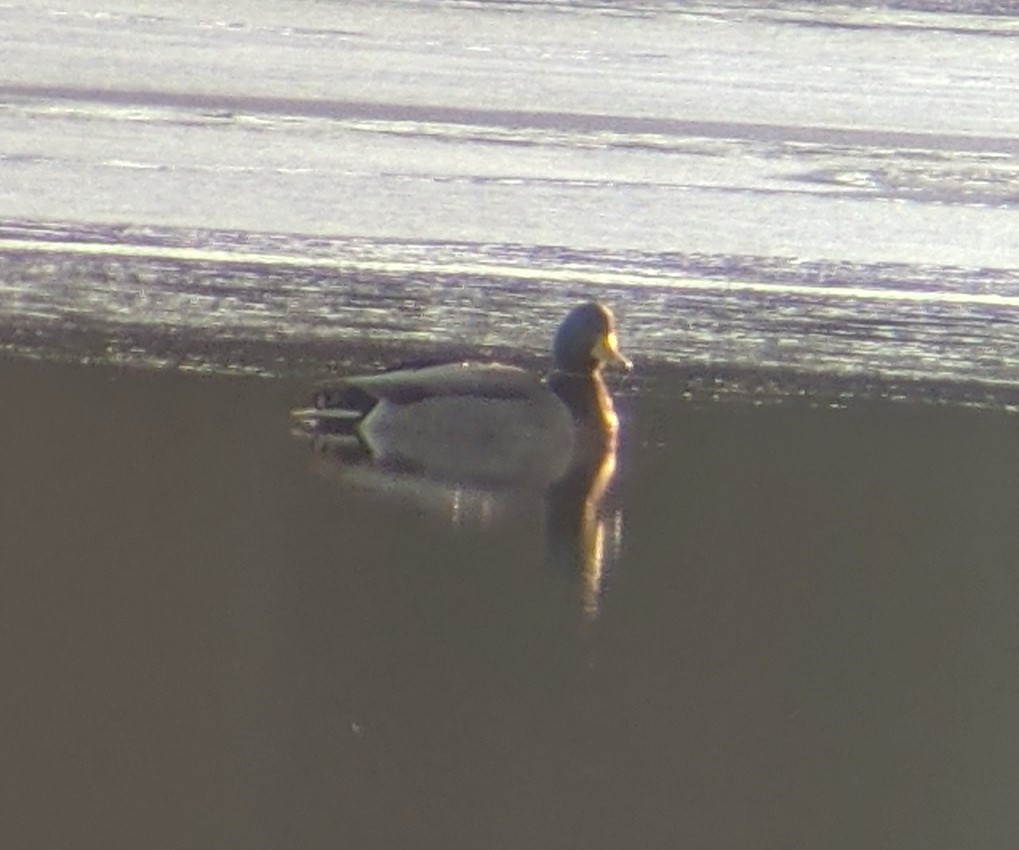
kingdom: Animalia
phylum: Chordata
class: Aves
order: Anseriformes
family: Anatidae
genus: Anas
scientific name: Anas platyrhynchos
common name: Mallard
